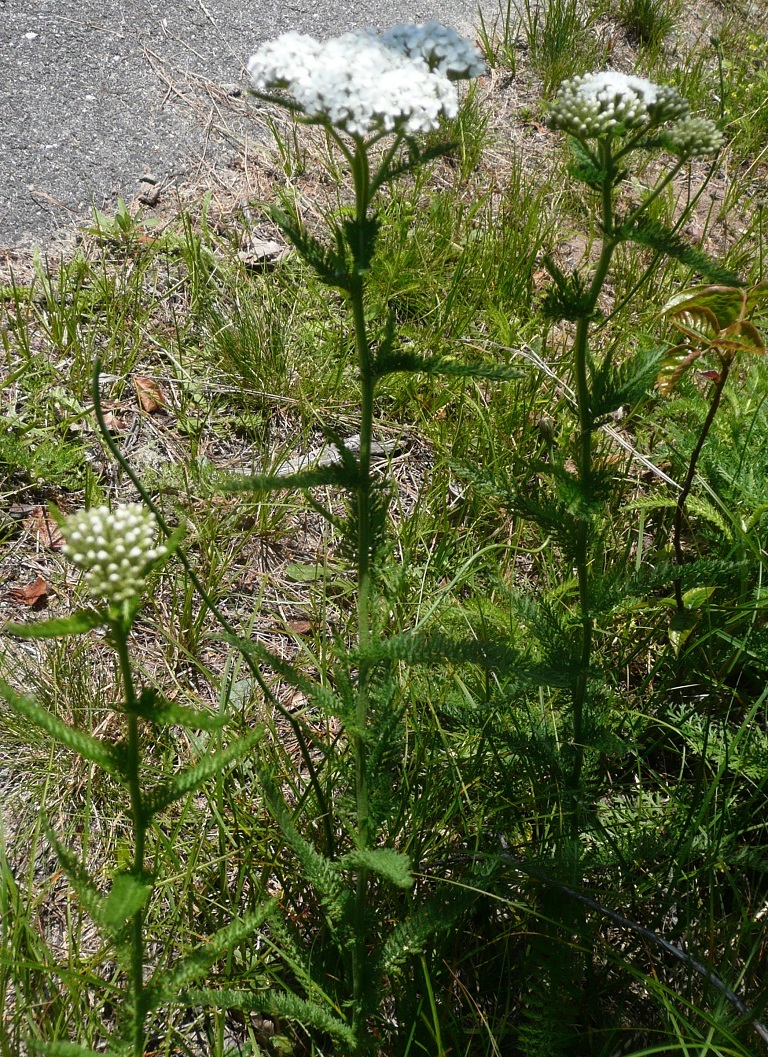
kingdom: Plantae
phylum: Tracheophyta
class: Magnoliopsida
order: Asterales
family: Asteraceae
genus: Achillea
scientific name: Achillea millefolium
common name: Yarrow
